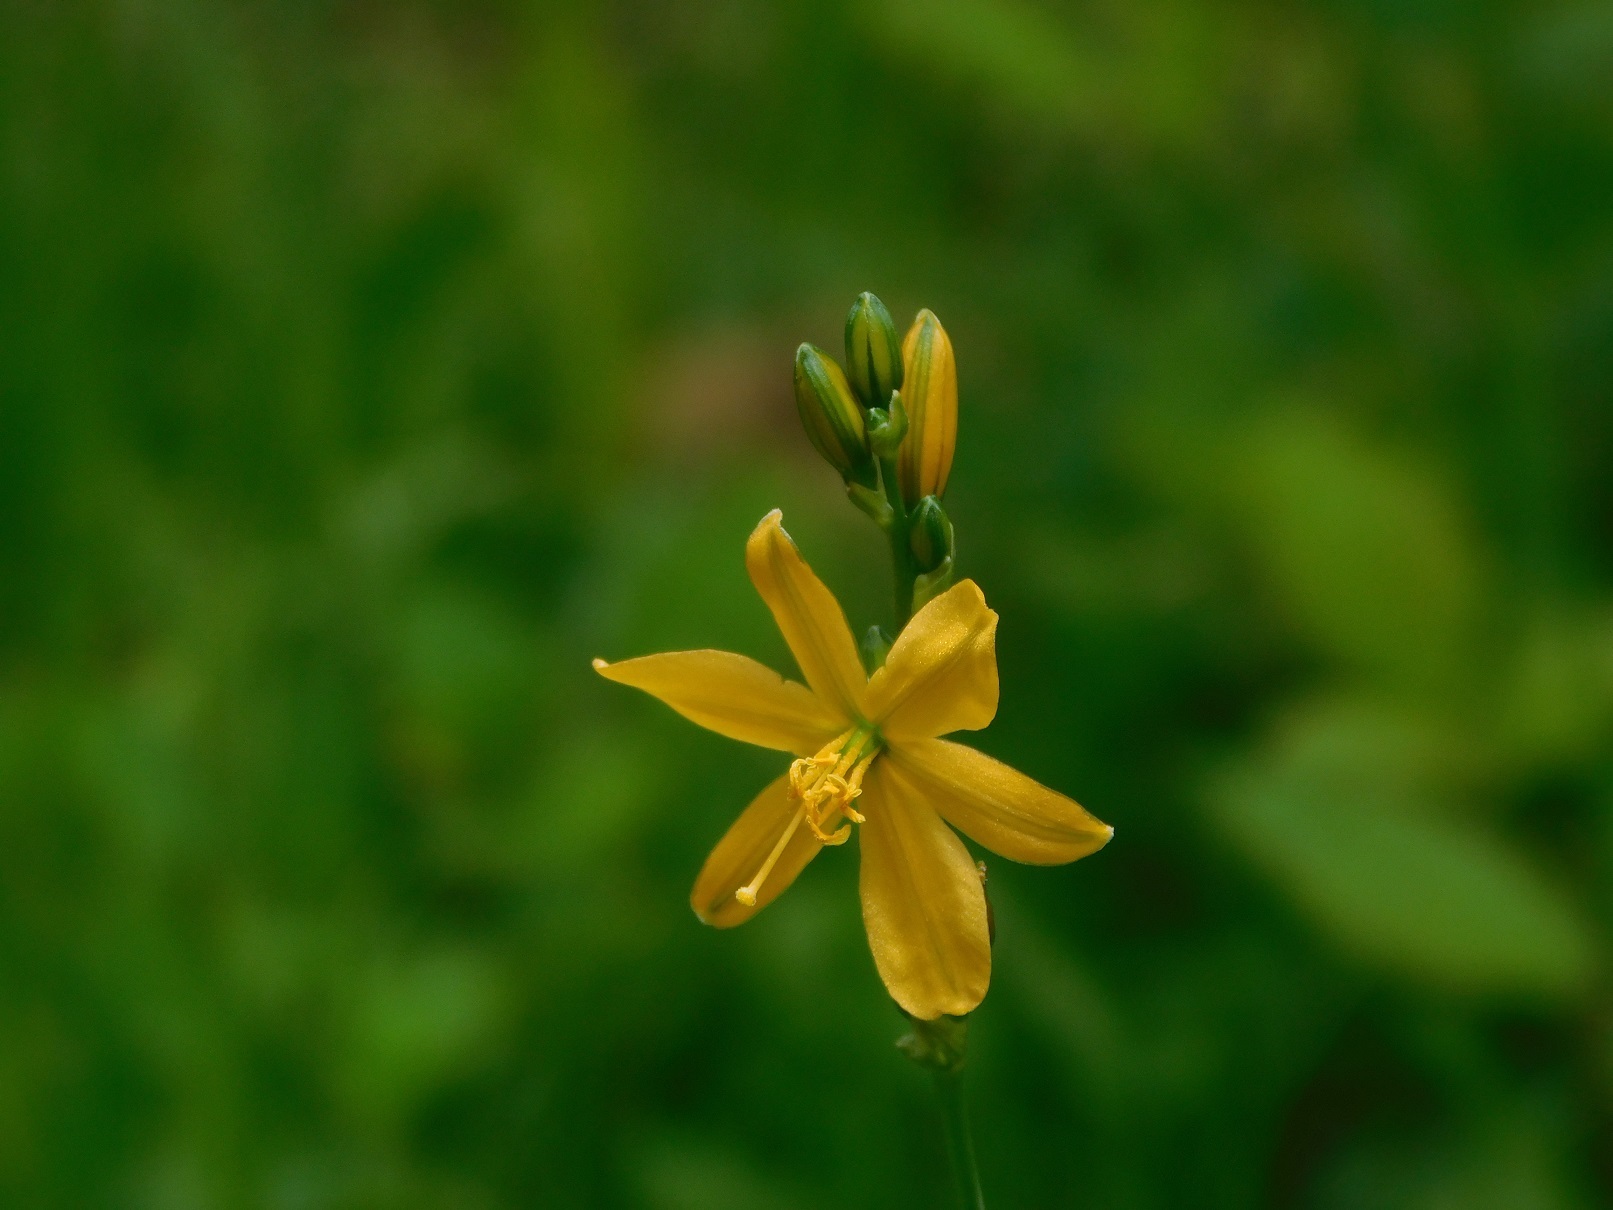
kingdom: Plantae
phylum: Tracheophyta
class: Liliopsida
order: Asparagales
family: Asparagaceae
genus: Echeandia
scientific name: Echeandia skinneri
